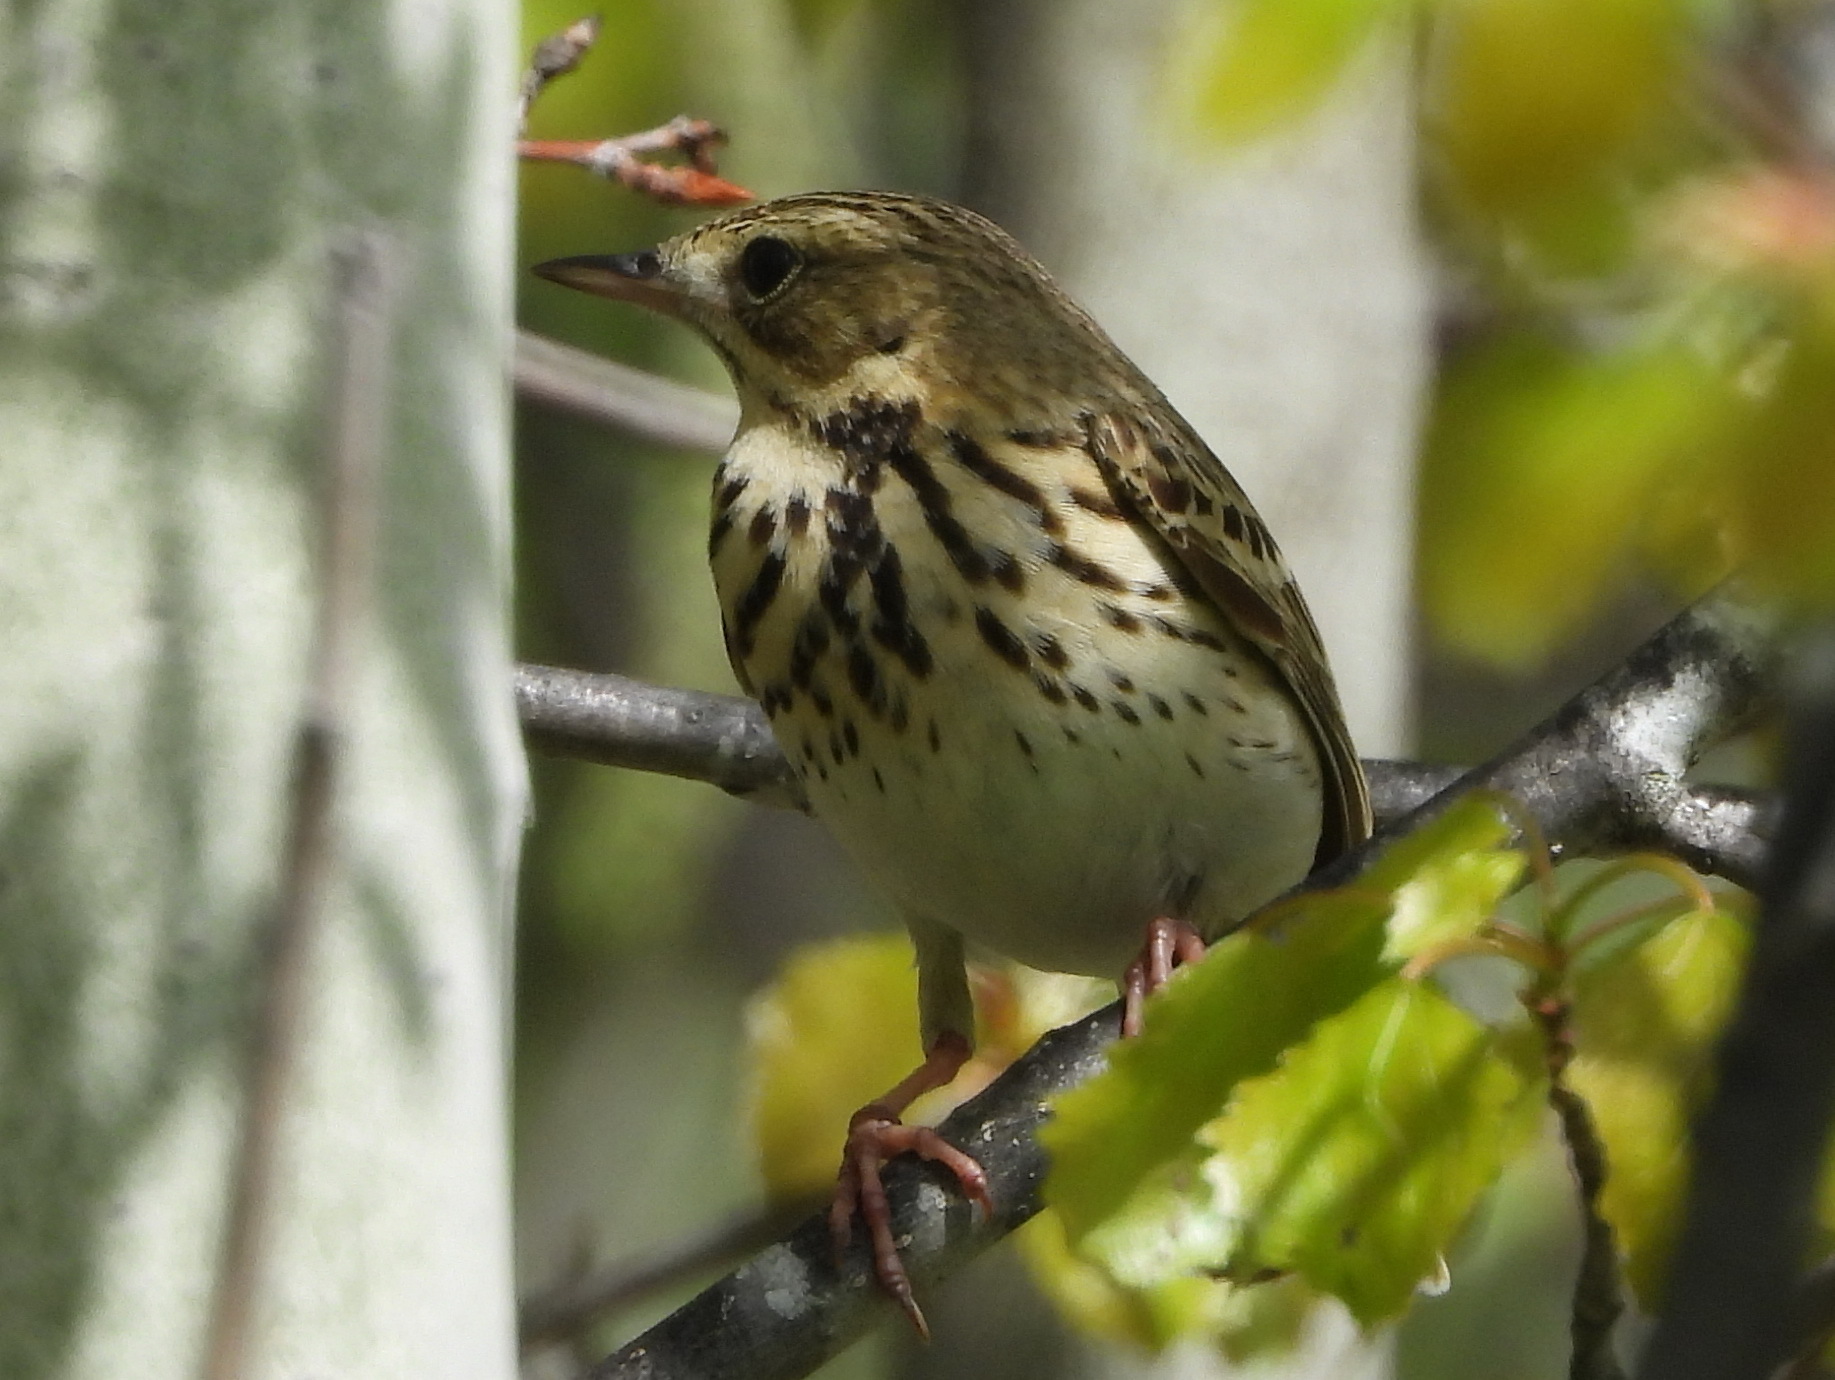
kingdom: Animalia
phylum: Chordata
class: Aves
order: Passeriformes
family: Motacillidae
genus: Anthus
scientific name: Anthus trivialis
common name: Tree pipit
